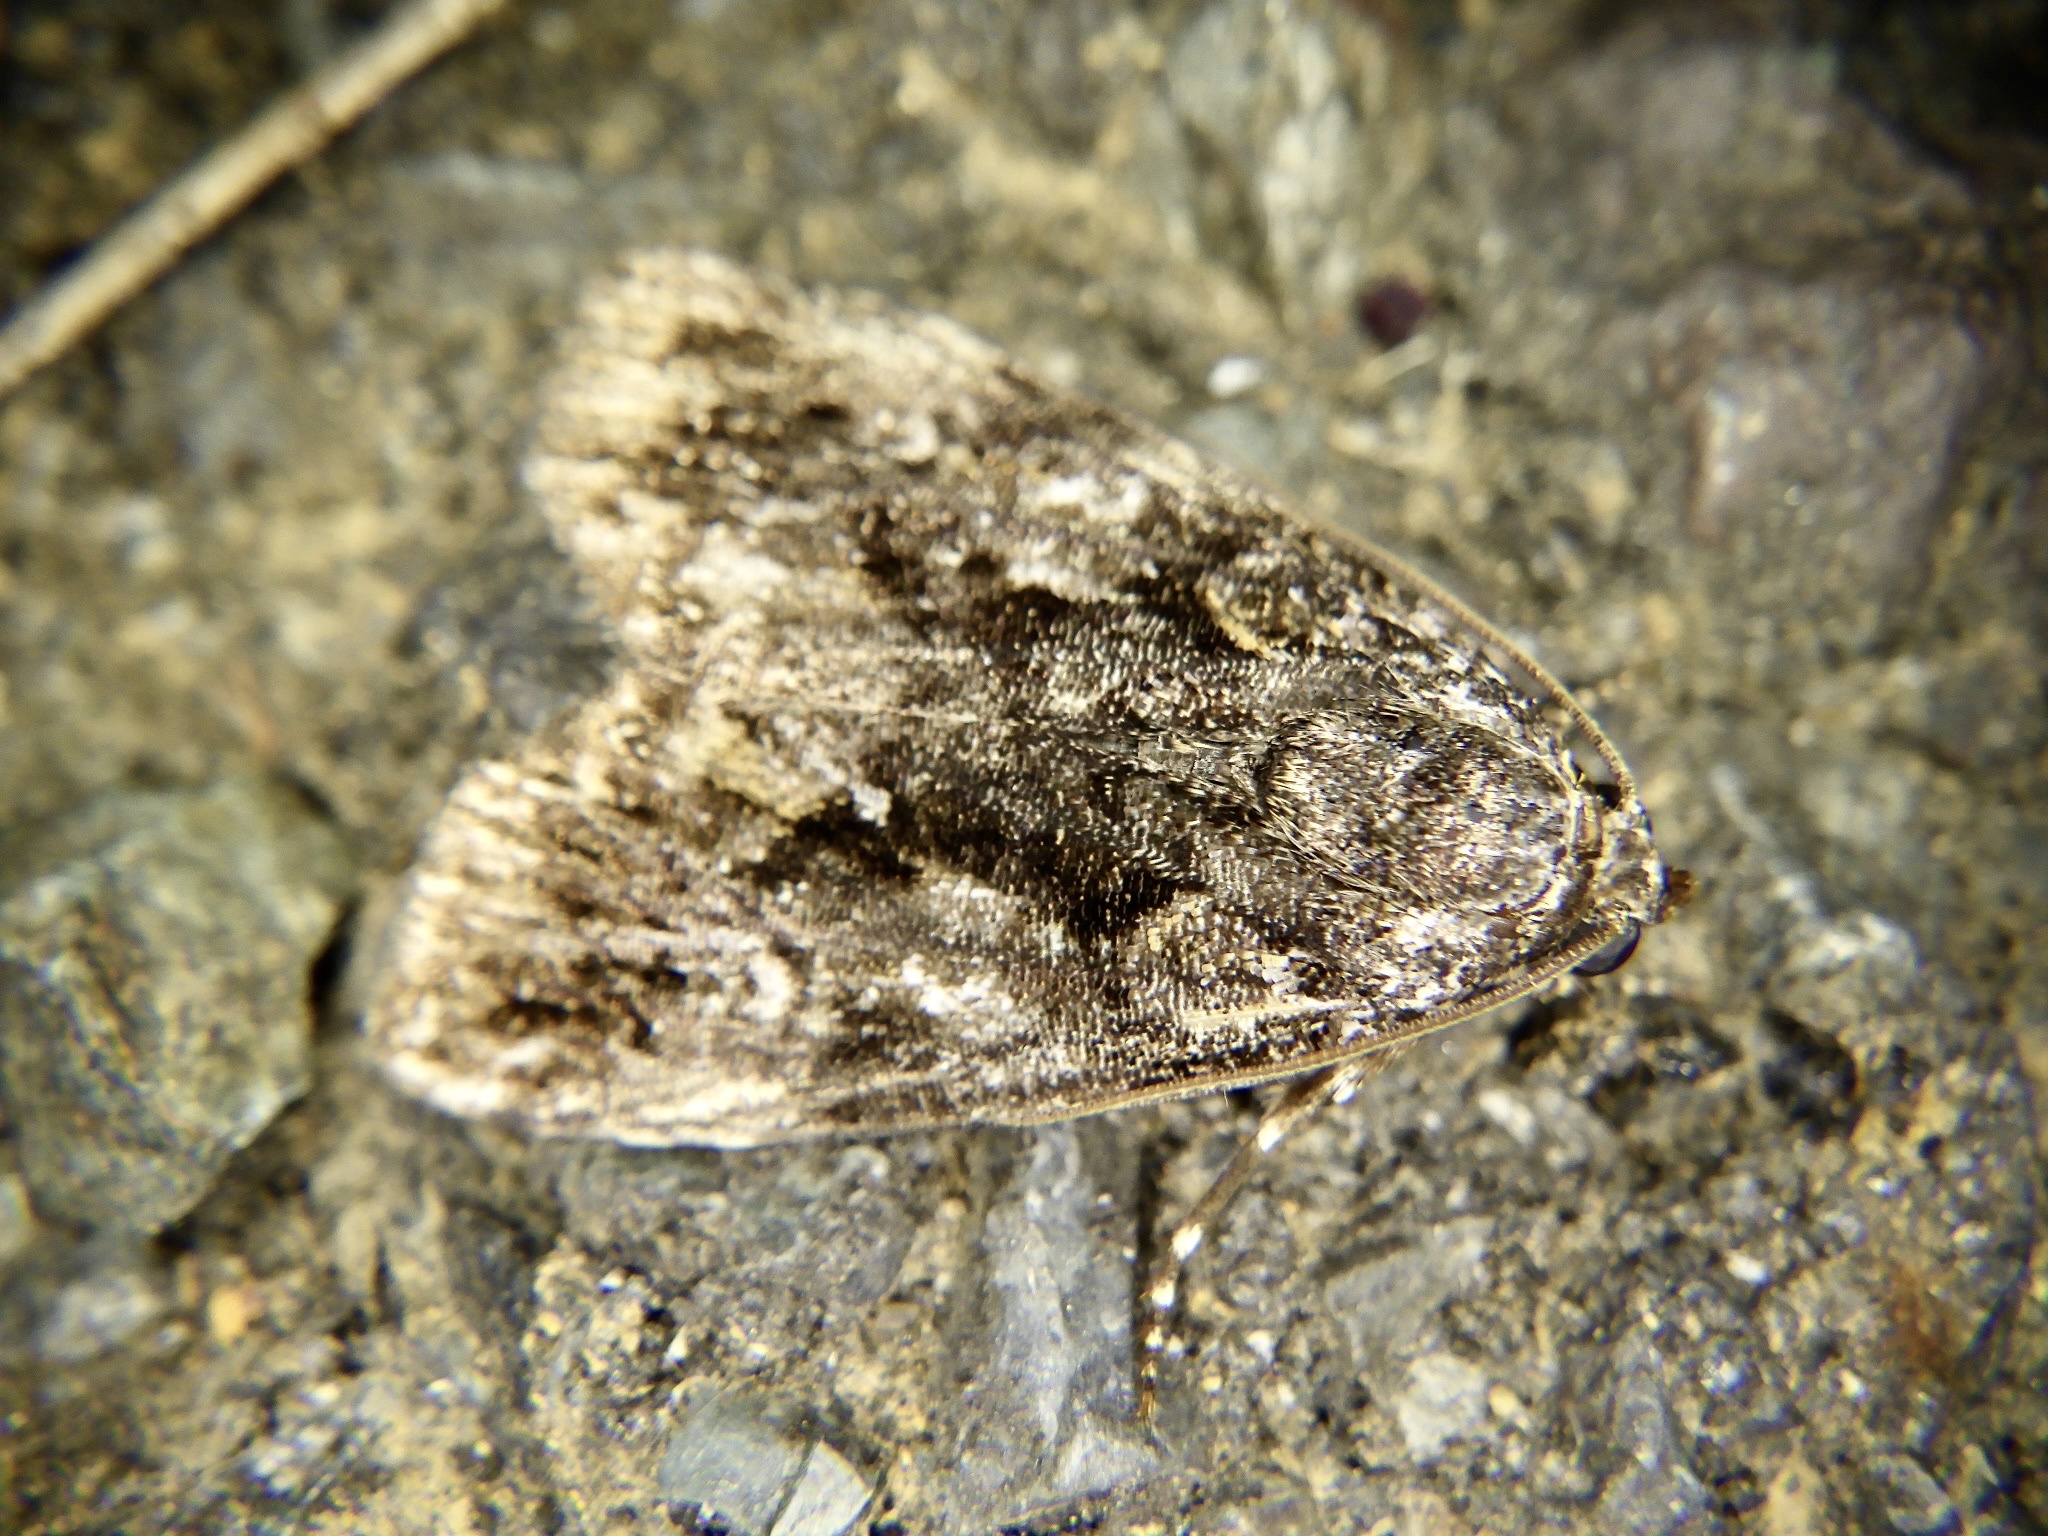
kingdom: Animalia
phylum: Arthropoda
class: Insecta
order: Lepidoptera
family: Noctuidae
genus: Gerbathodes
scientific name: Gerbathodes lichenodes
